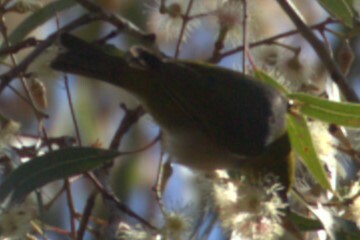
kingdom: Animalia
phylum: Chordata
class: Aves
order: Passeriformes
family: Zosteropidae
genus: Zosterops
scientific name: Zosterops lateralis
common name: Silvereye
